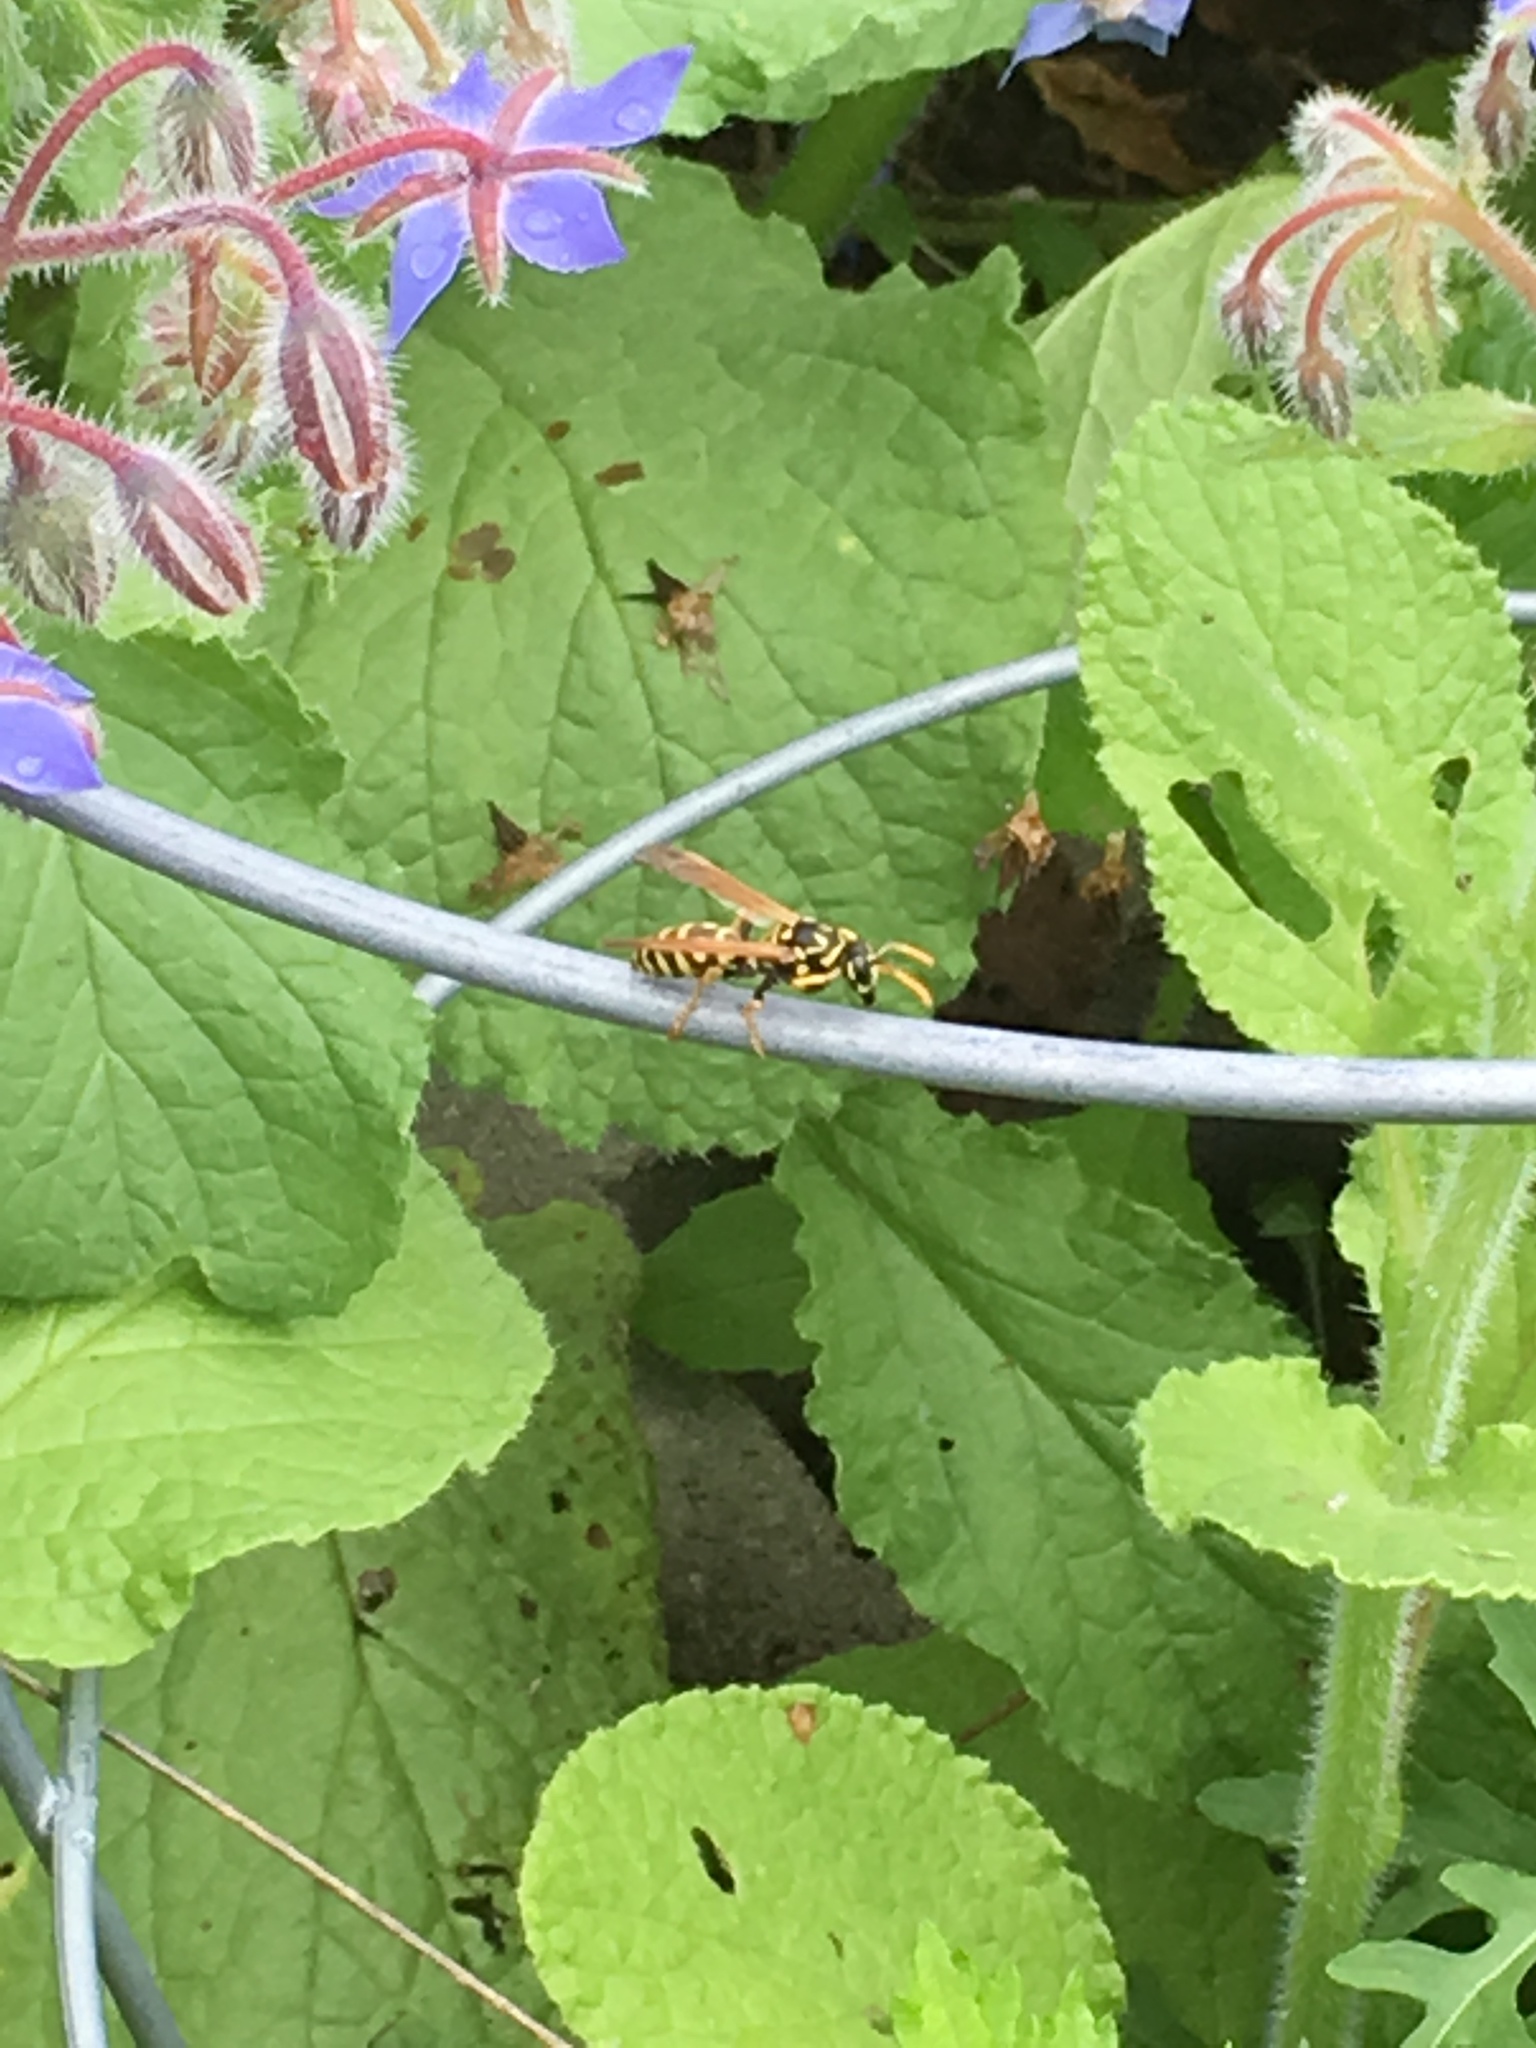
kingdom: Animalia
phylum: Arthropoda
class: Insecta
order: Hymenoptera
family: Eumenidae
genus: Polistes
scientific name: Polistes dominula
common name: Paper wasp
